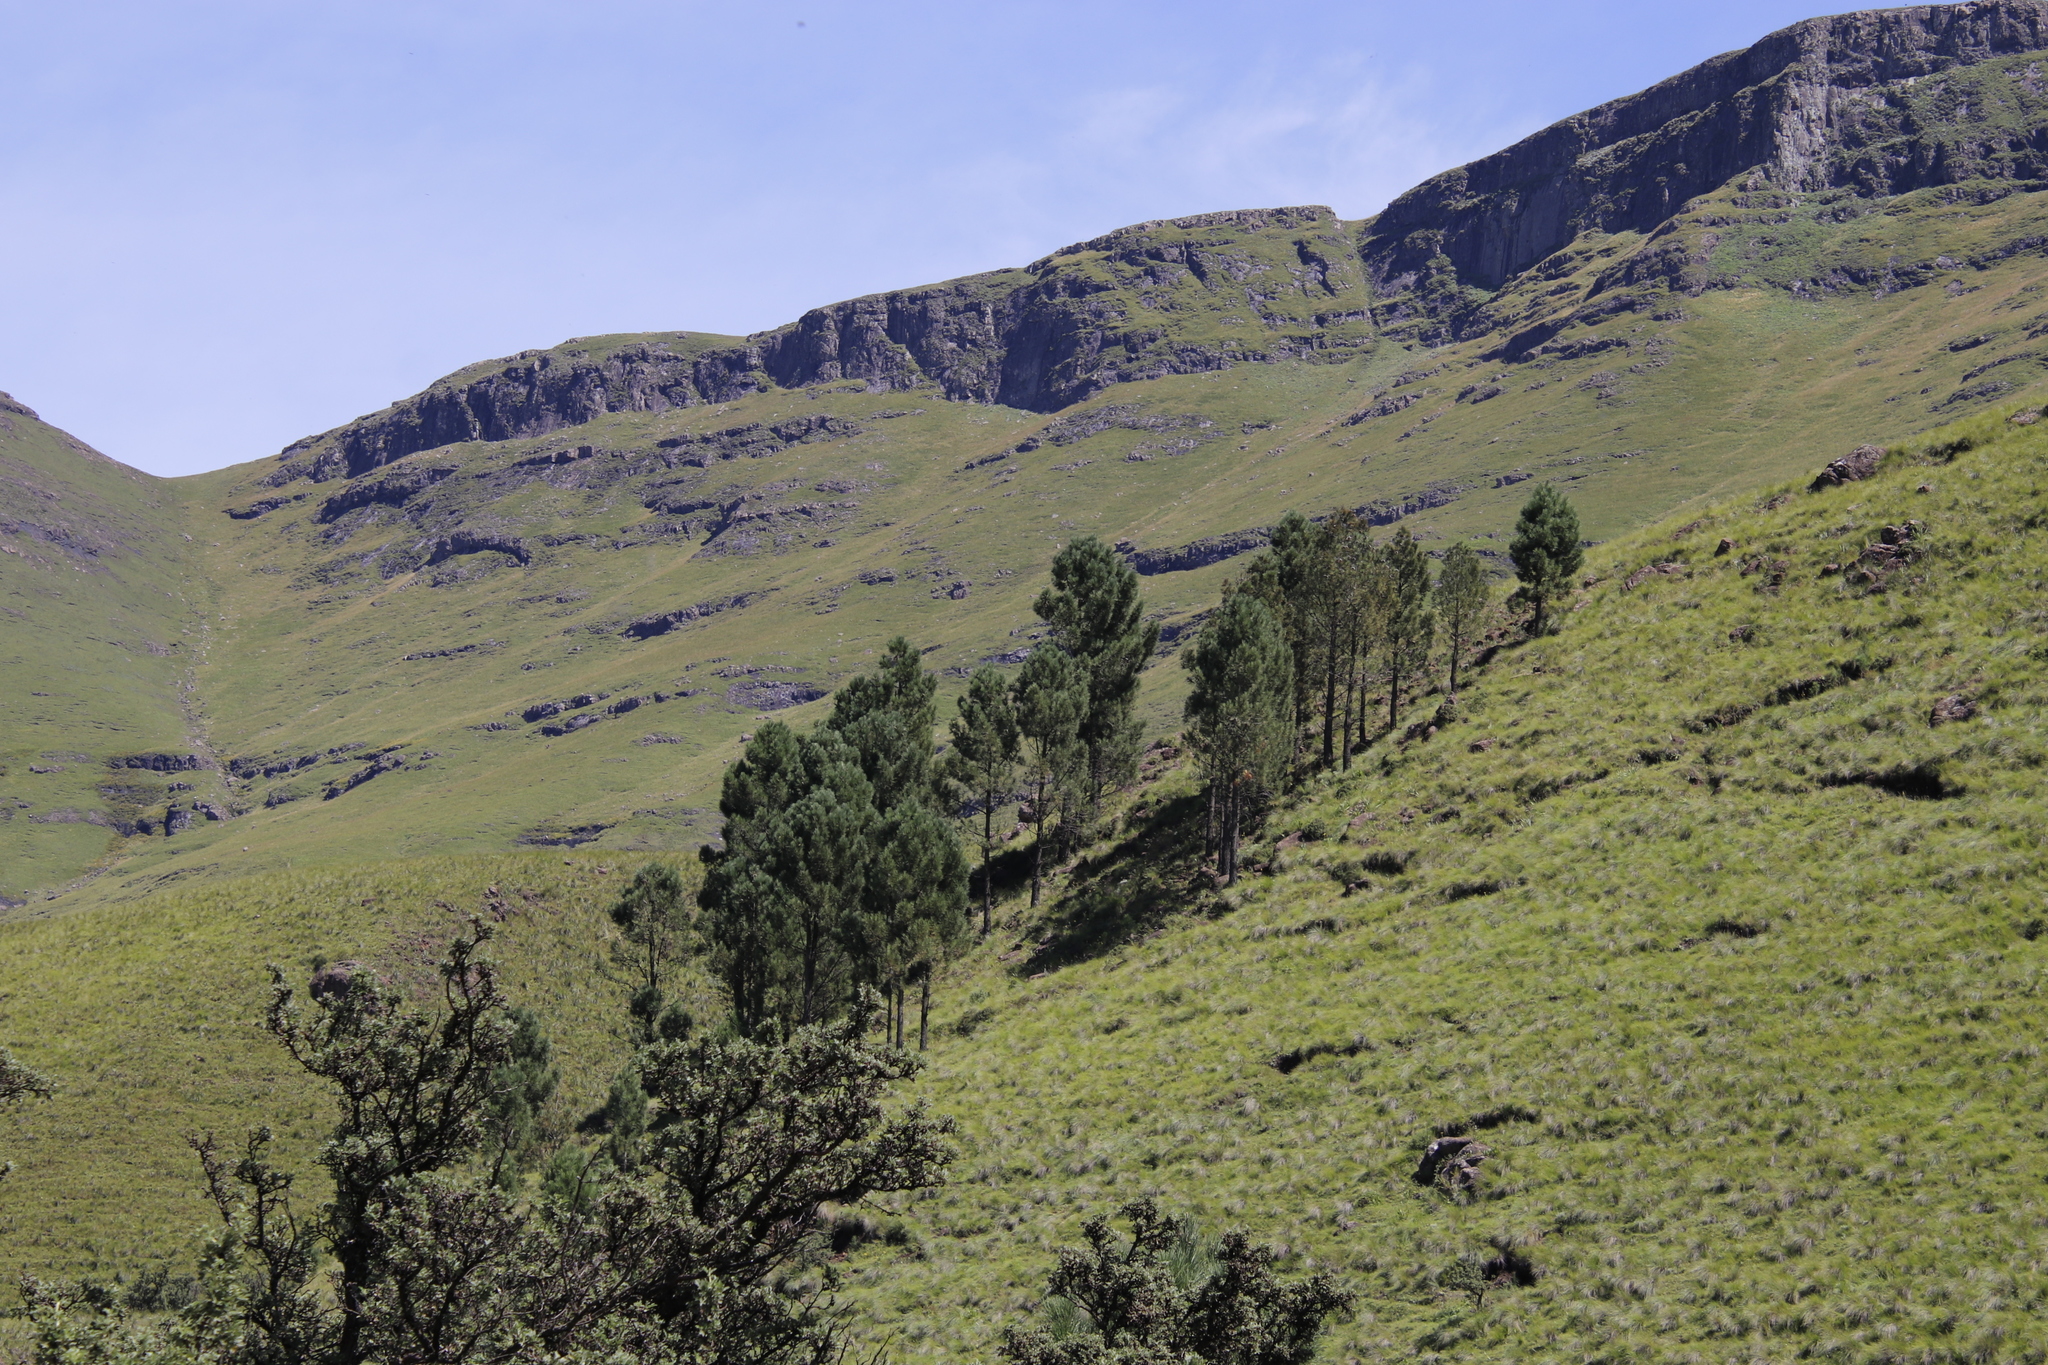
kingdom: Plantae
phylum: Tracheophyta
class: Pinopsida
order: Pinales
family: Pinaceae
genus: Pinus
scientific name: Pinus pinaster
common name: Maritime pine
